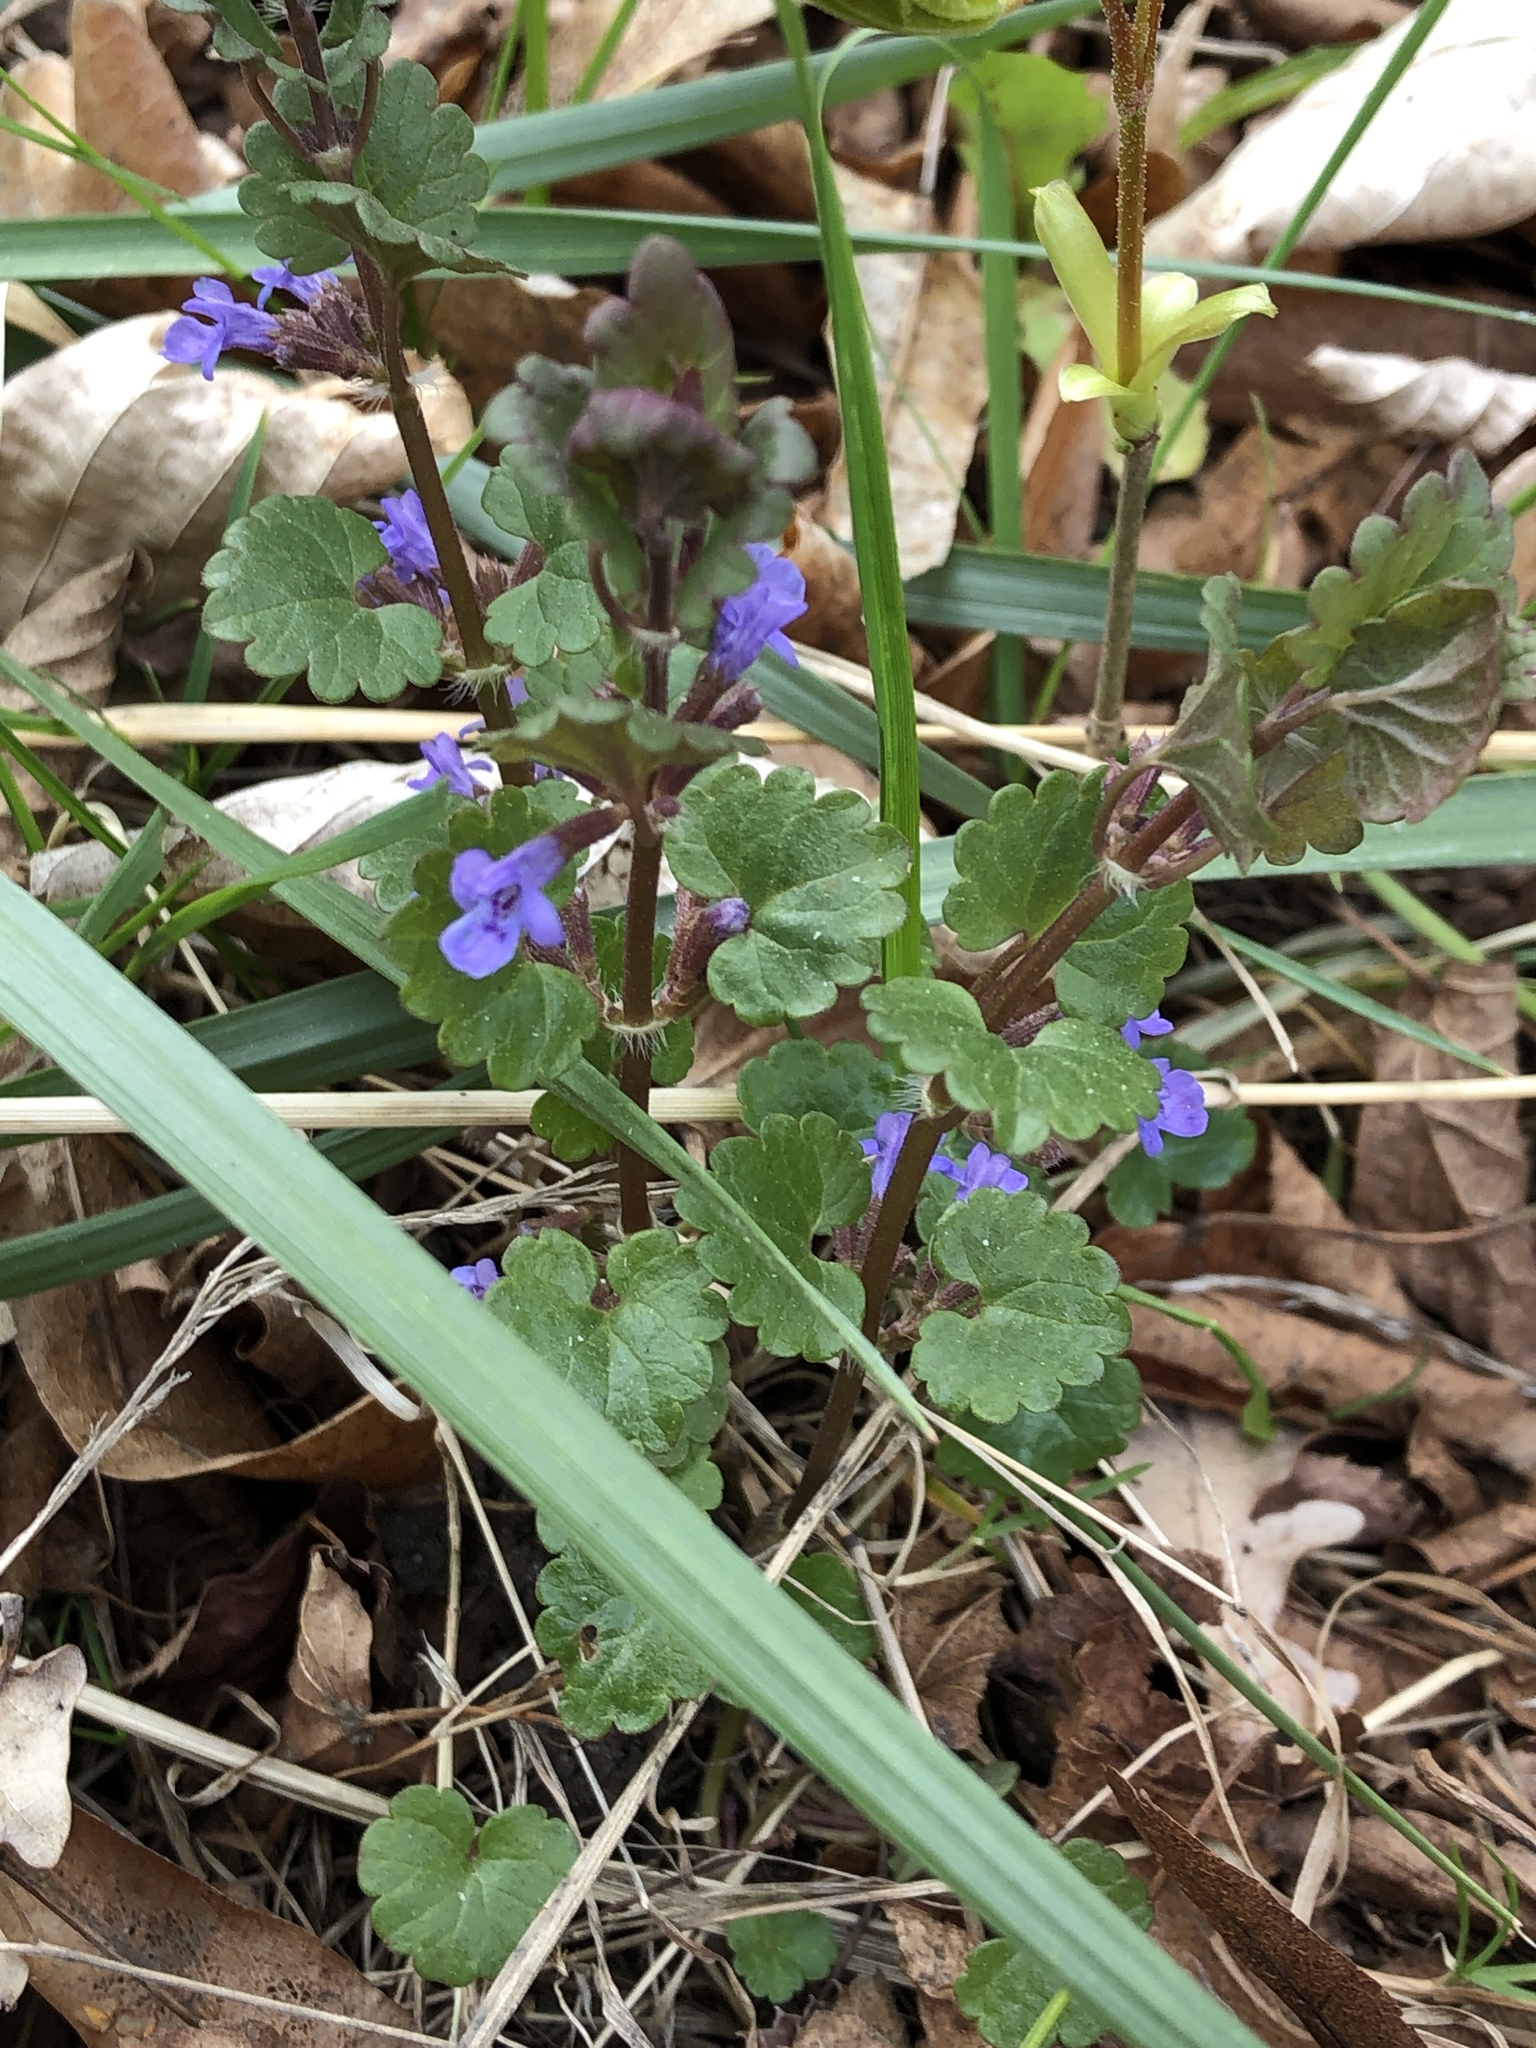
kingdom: Plantae
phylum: Tracheophyta
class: Magnoliopsida
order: Lamiales
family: Lamiaceae
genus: Glechoma
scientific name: Glechoma hederacea
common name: Ground ivy
